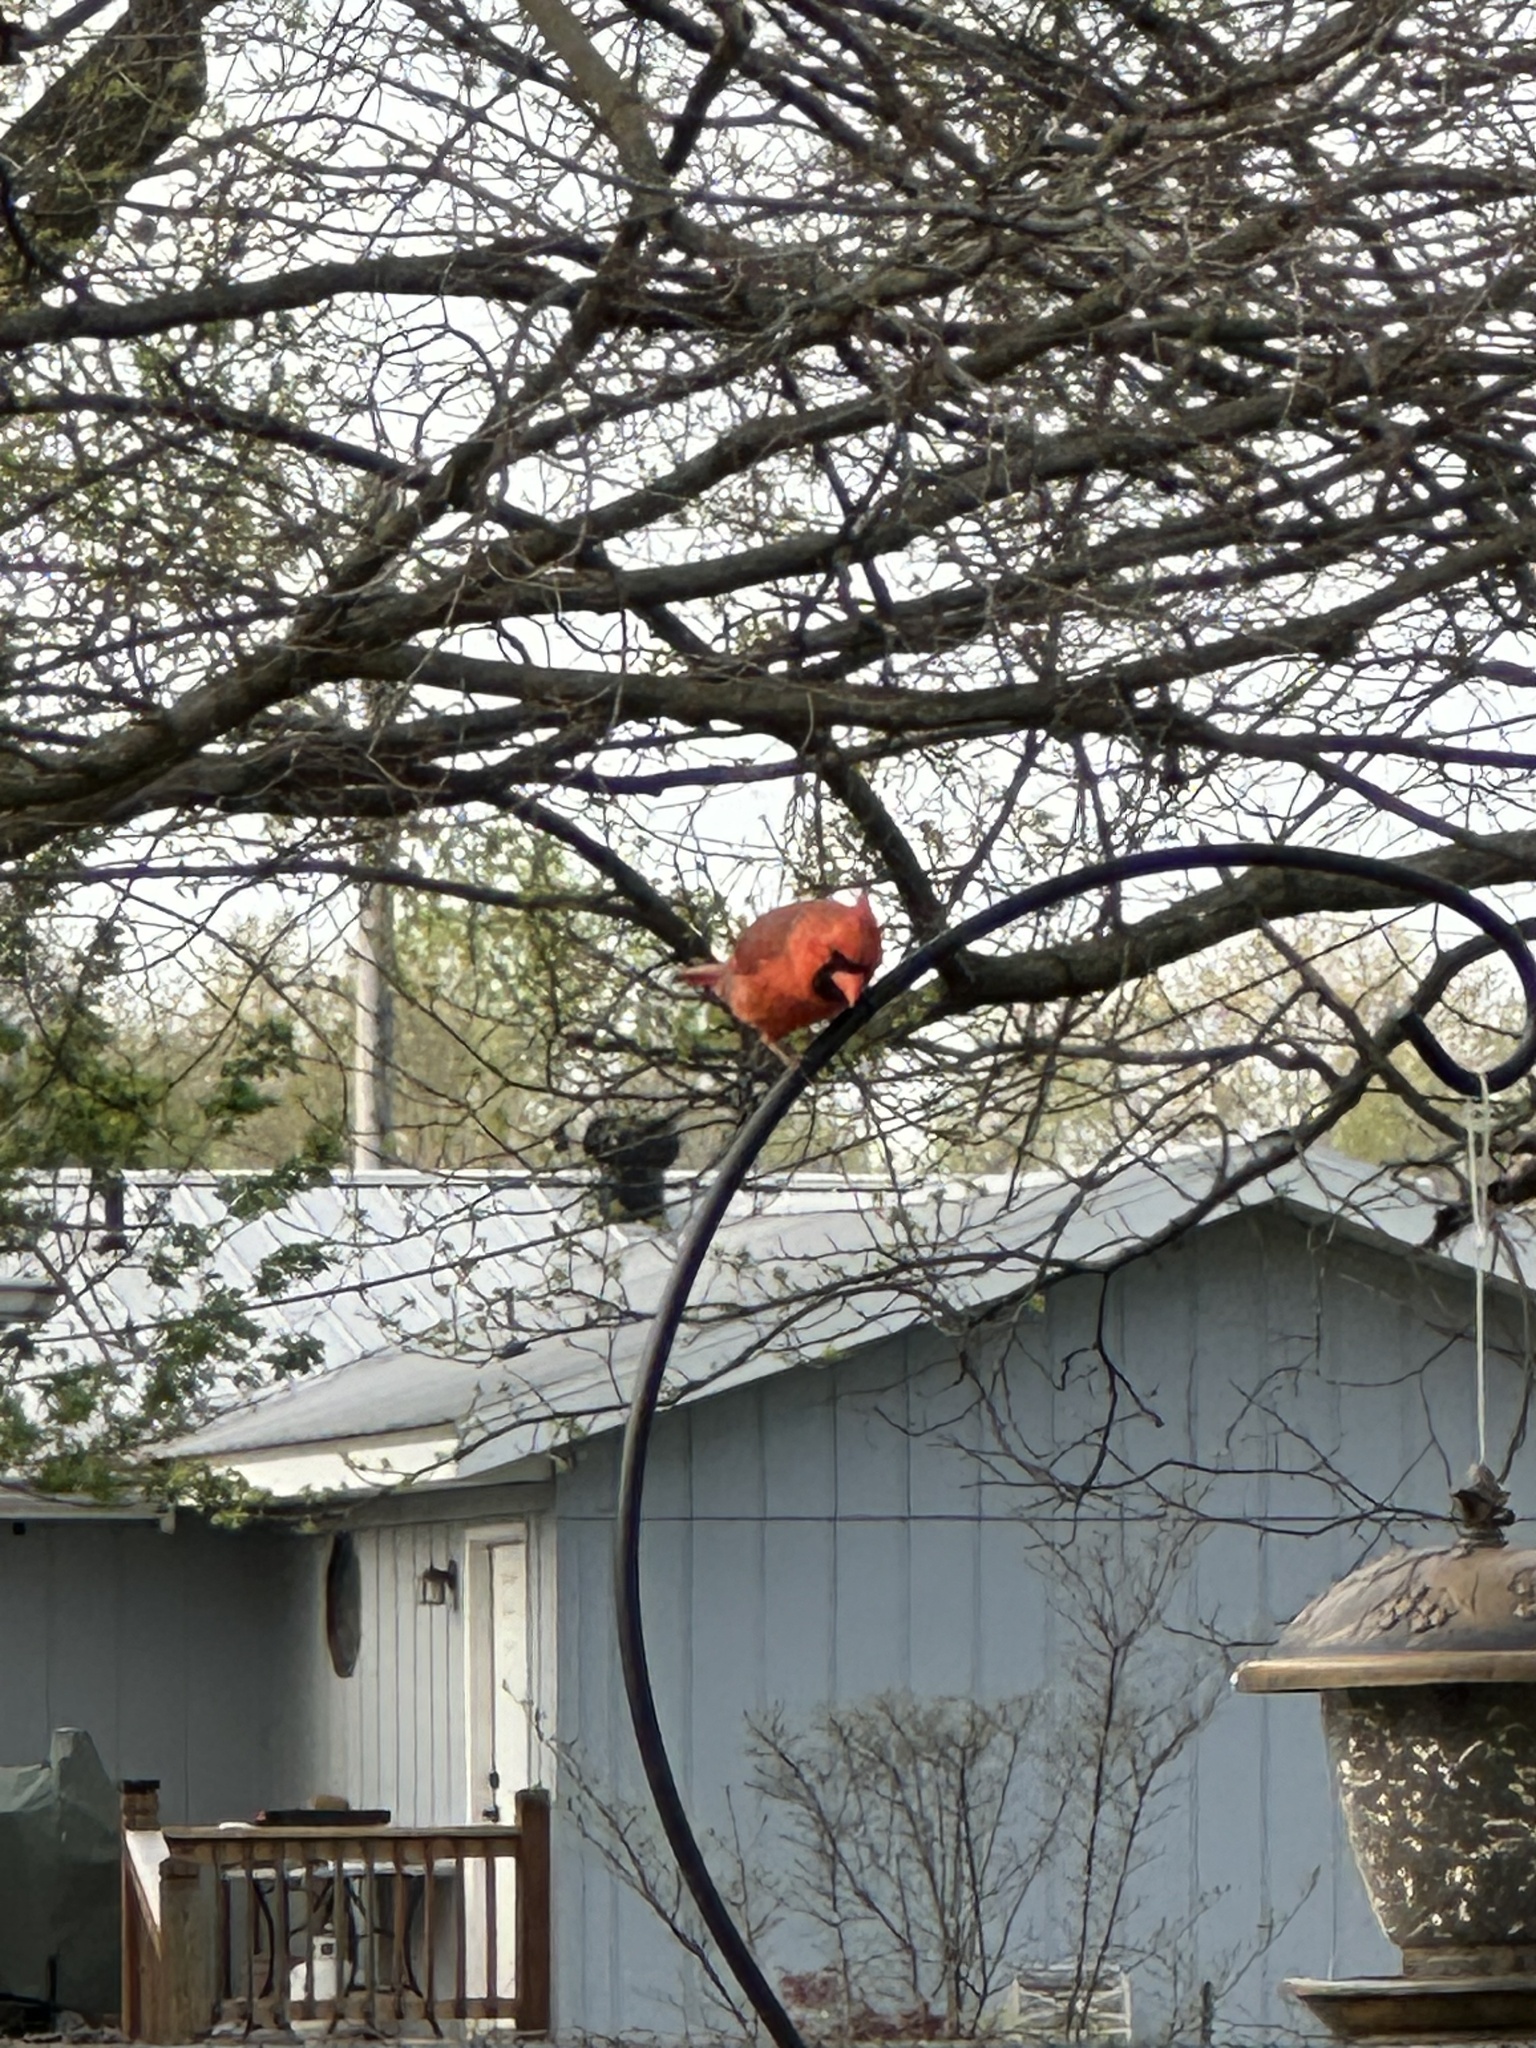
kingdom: Animalia
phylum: Chordata
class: Aves
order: Passeriformes
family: Cardinalidae
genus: Cardinalis
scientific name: Cardinalis cardinalis
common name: Northern cardinal
